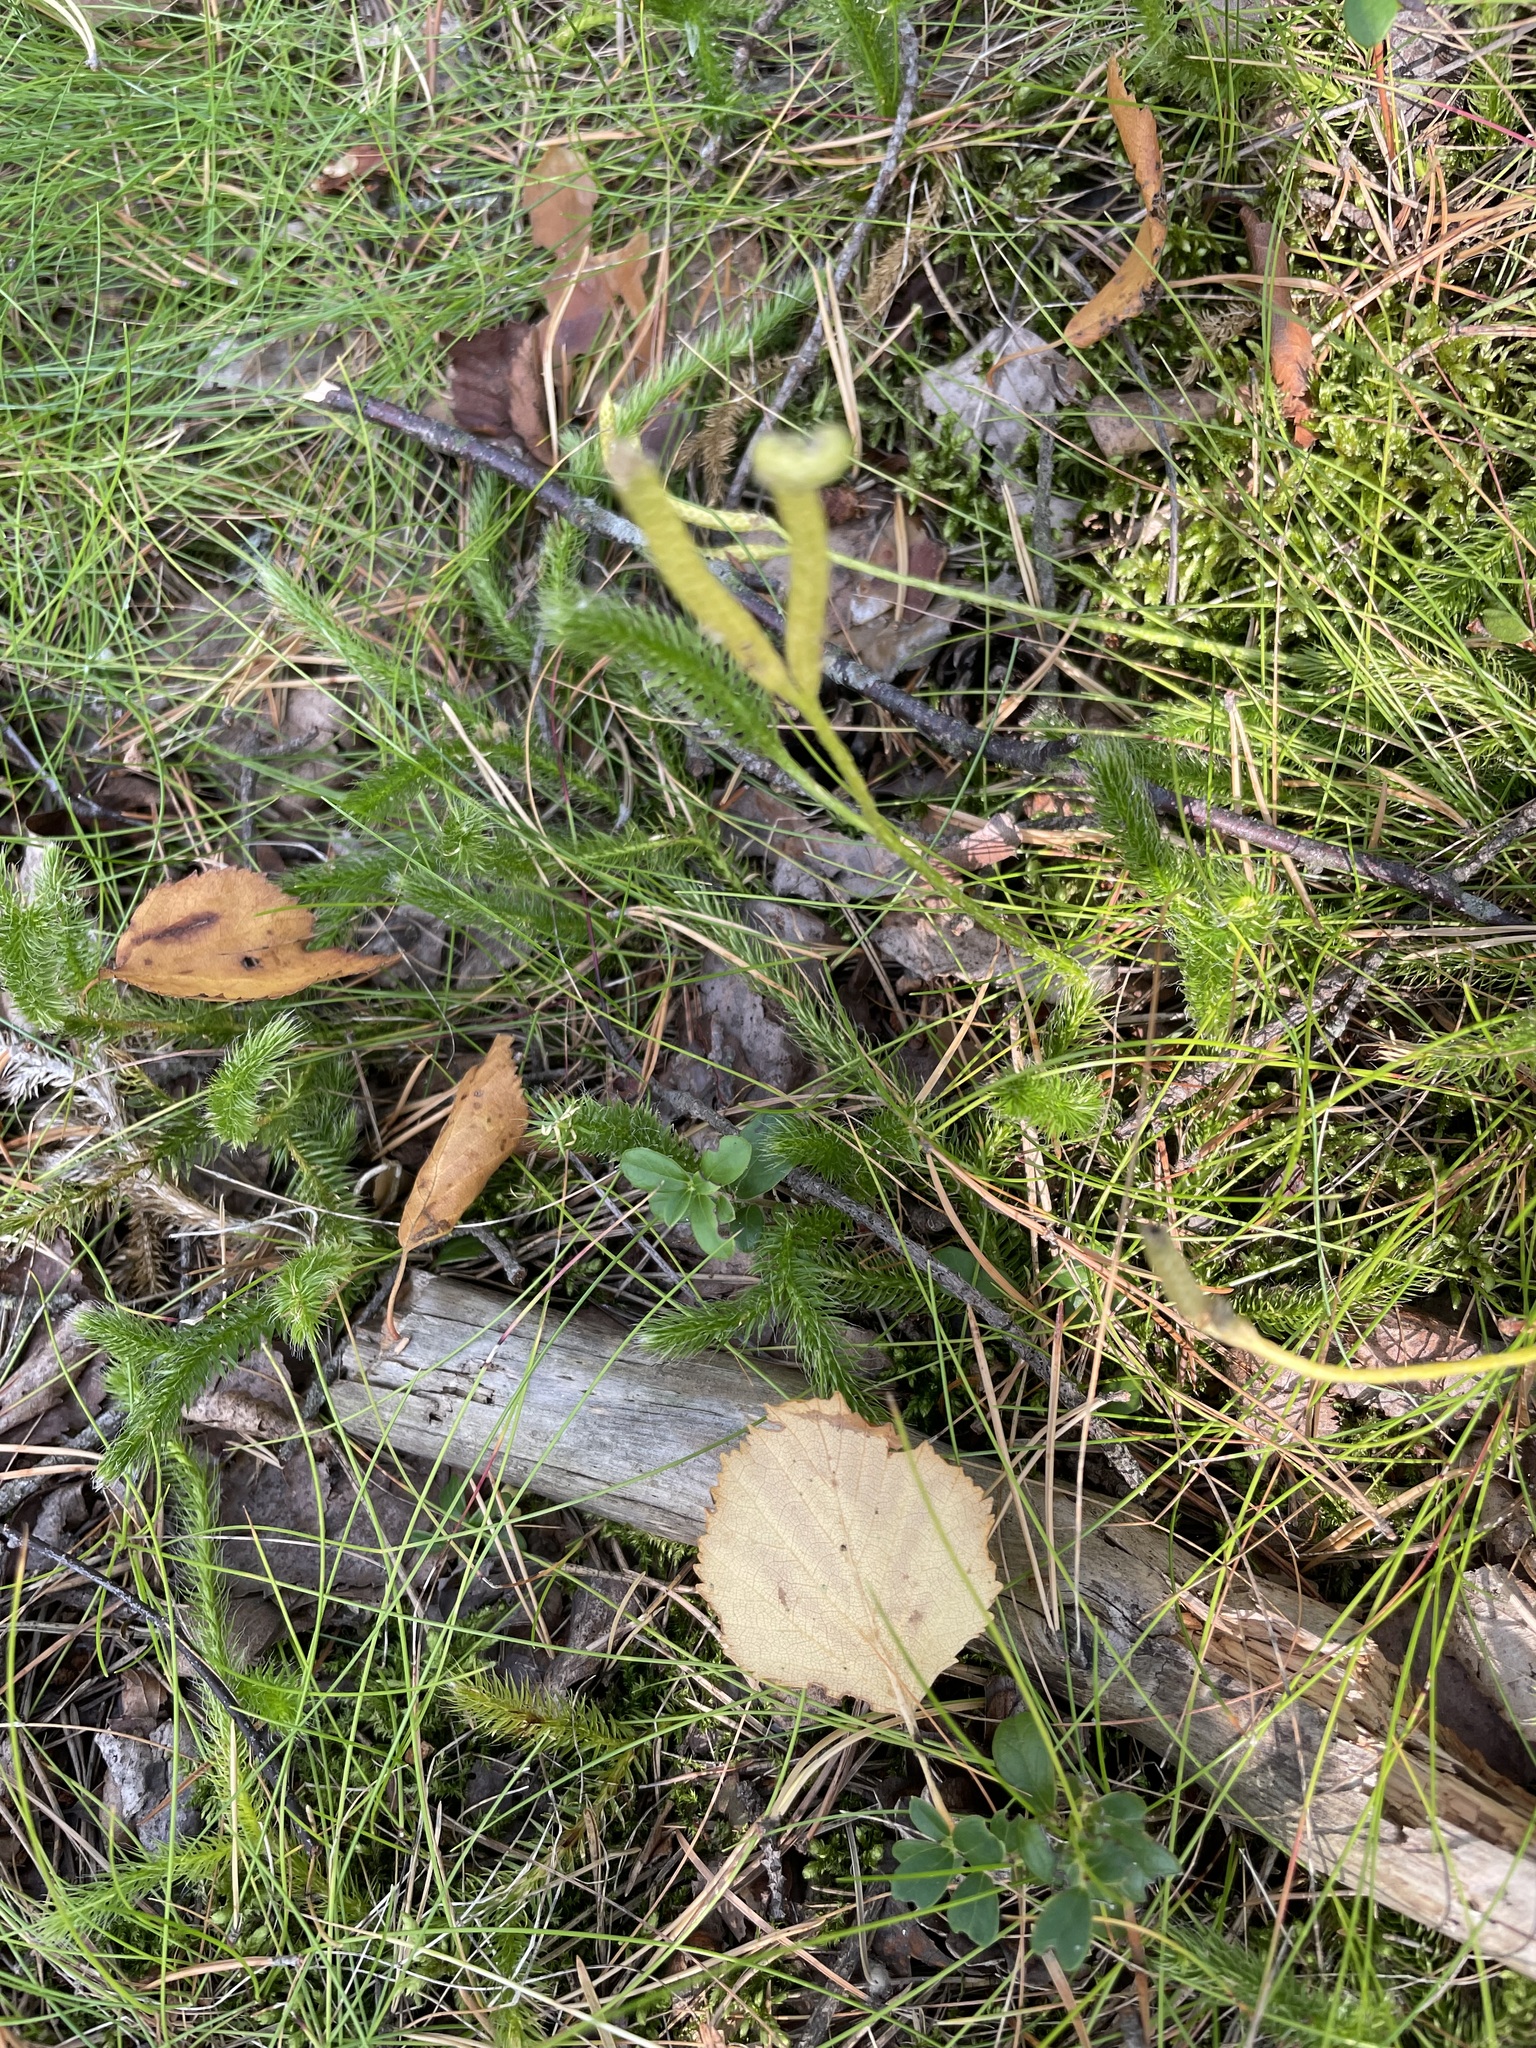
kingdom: Plantae
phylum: Tracheophyta
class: Lycopodiopsida
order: Lycopodiales
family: Lycopodiaceae
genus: Lycopodium
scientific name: Lycopodium clavatum
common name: Stag's-horn clubmoss
